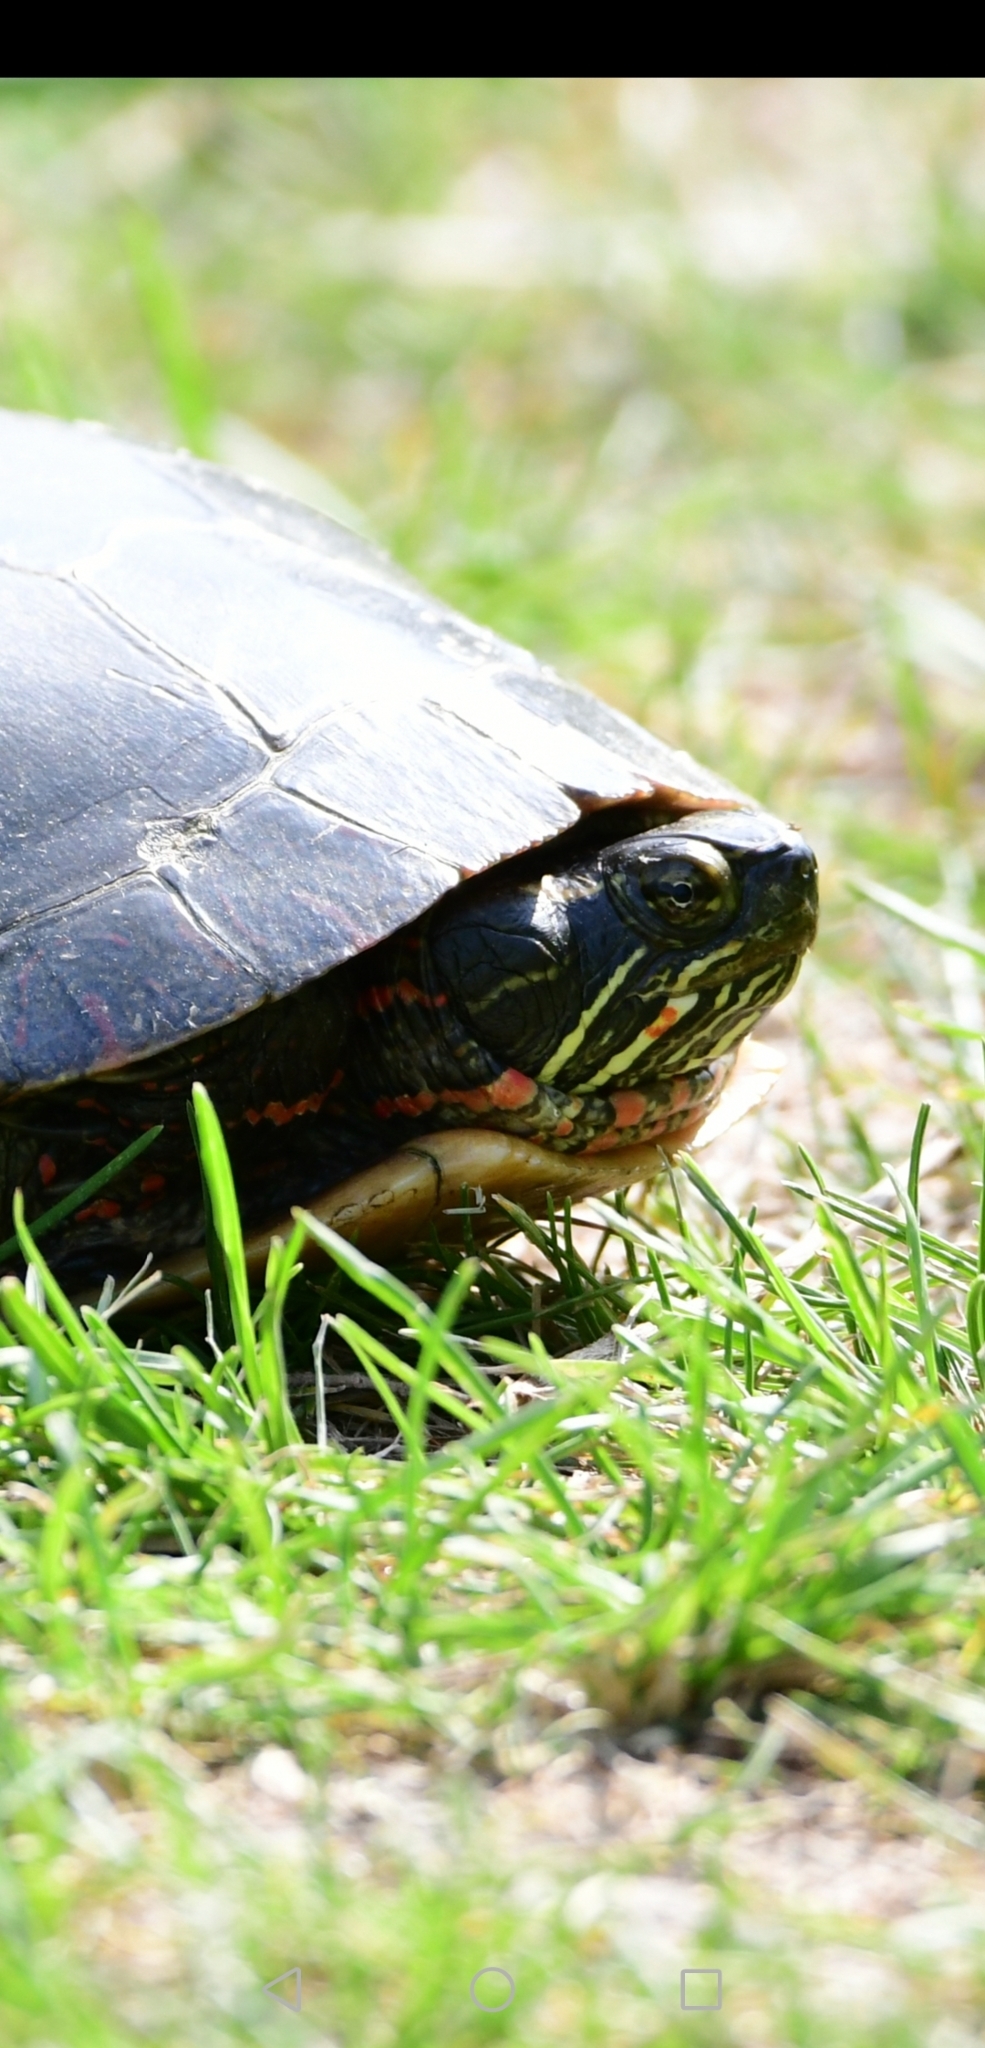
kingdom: Animalia
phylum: Chordata
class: Testudines
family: Emydidae
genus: Chrysemys
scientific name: Chrysemys picta
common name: Painted turtle
